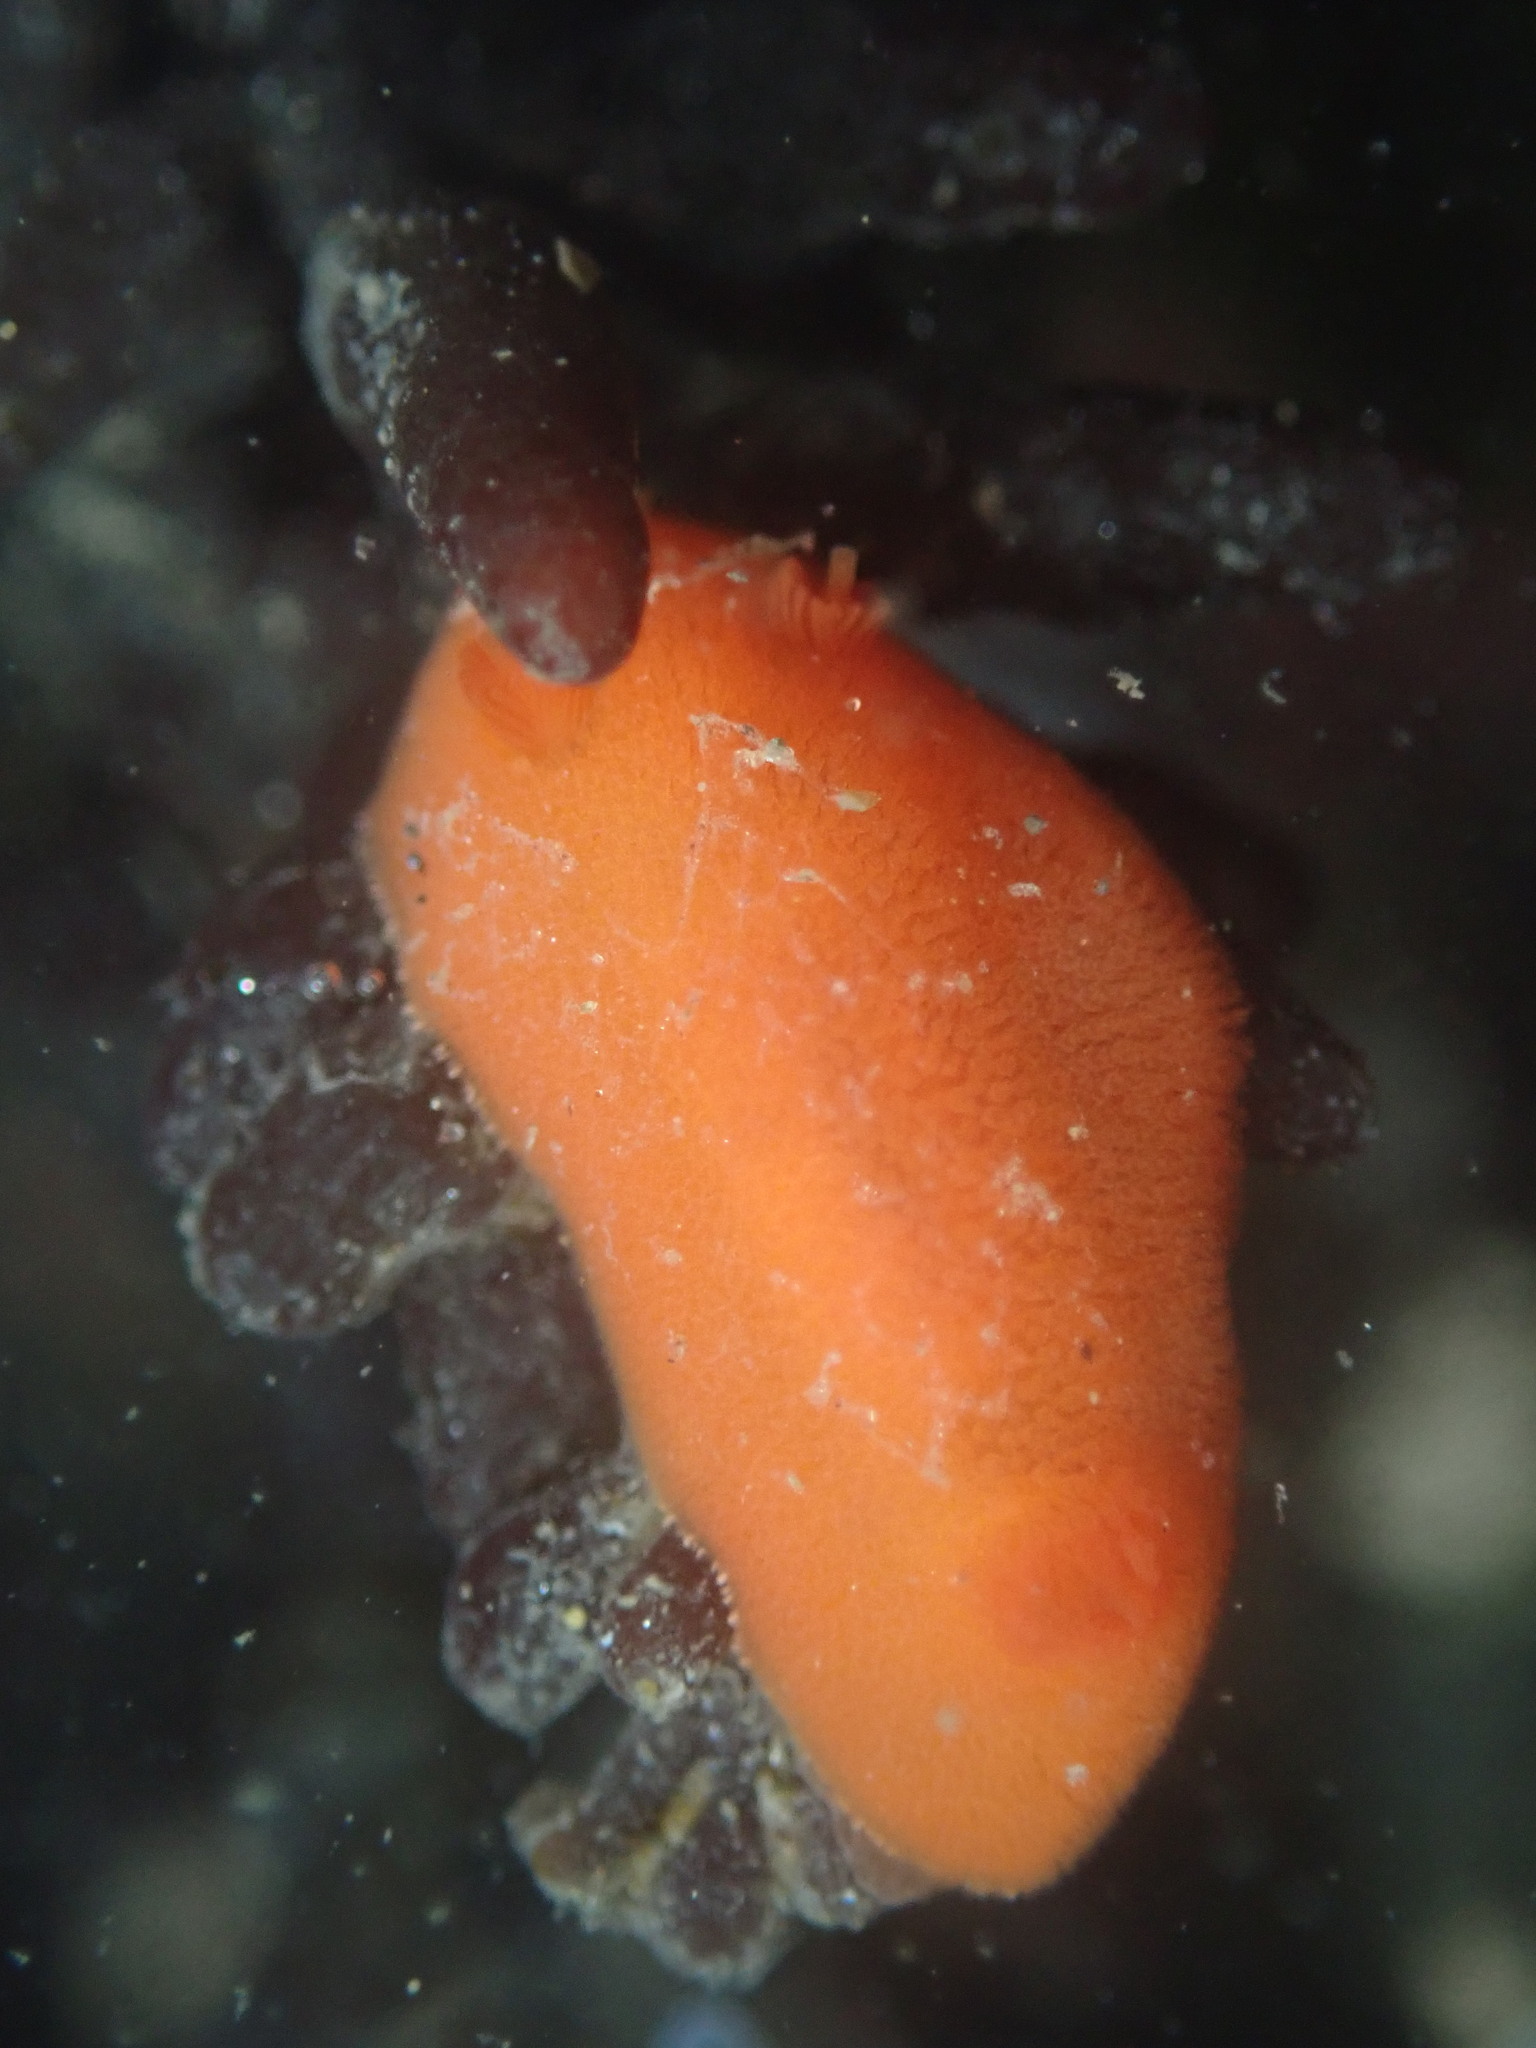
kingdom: Animalia
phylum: Mollusca
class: Gastropoda
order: Nudibranchia
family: Discodorididae
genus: Rostanga
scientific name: Rostanga pulchra
